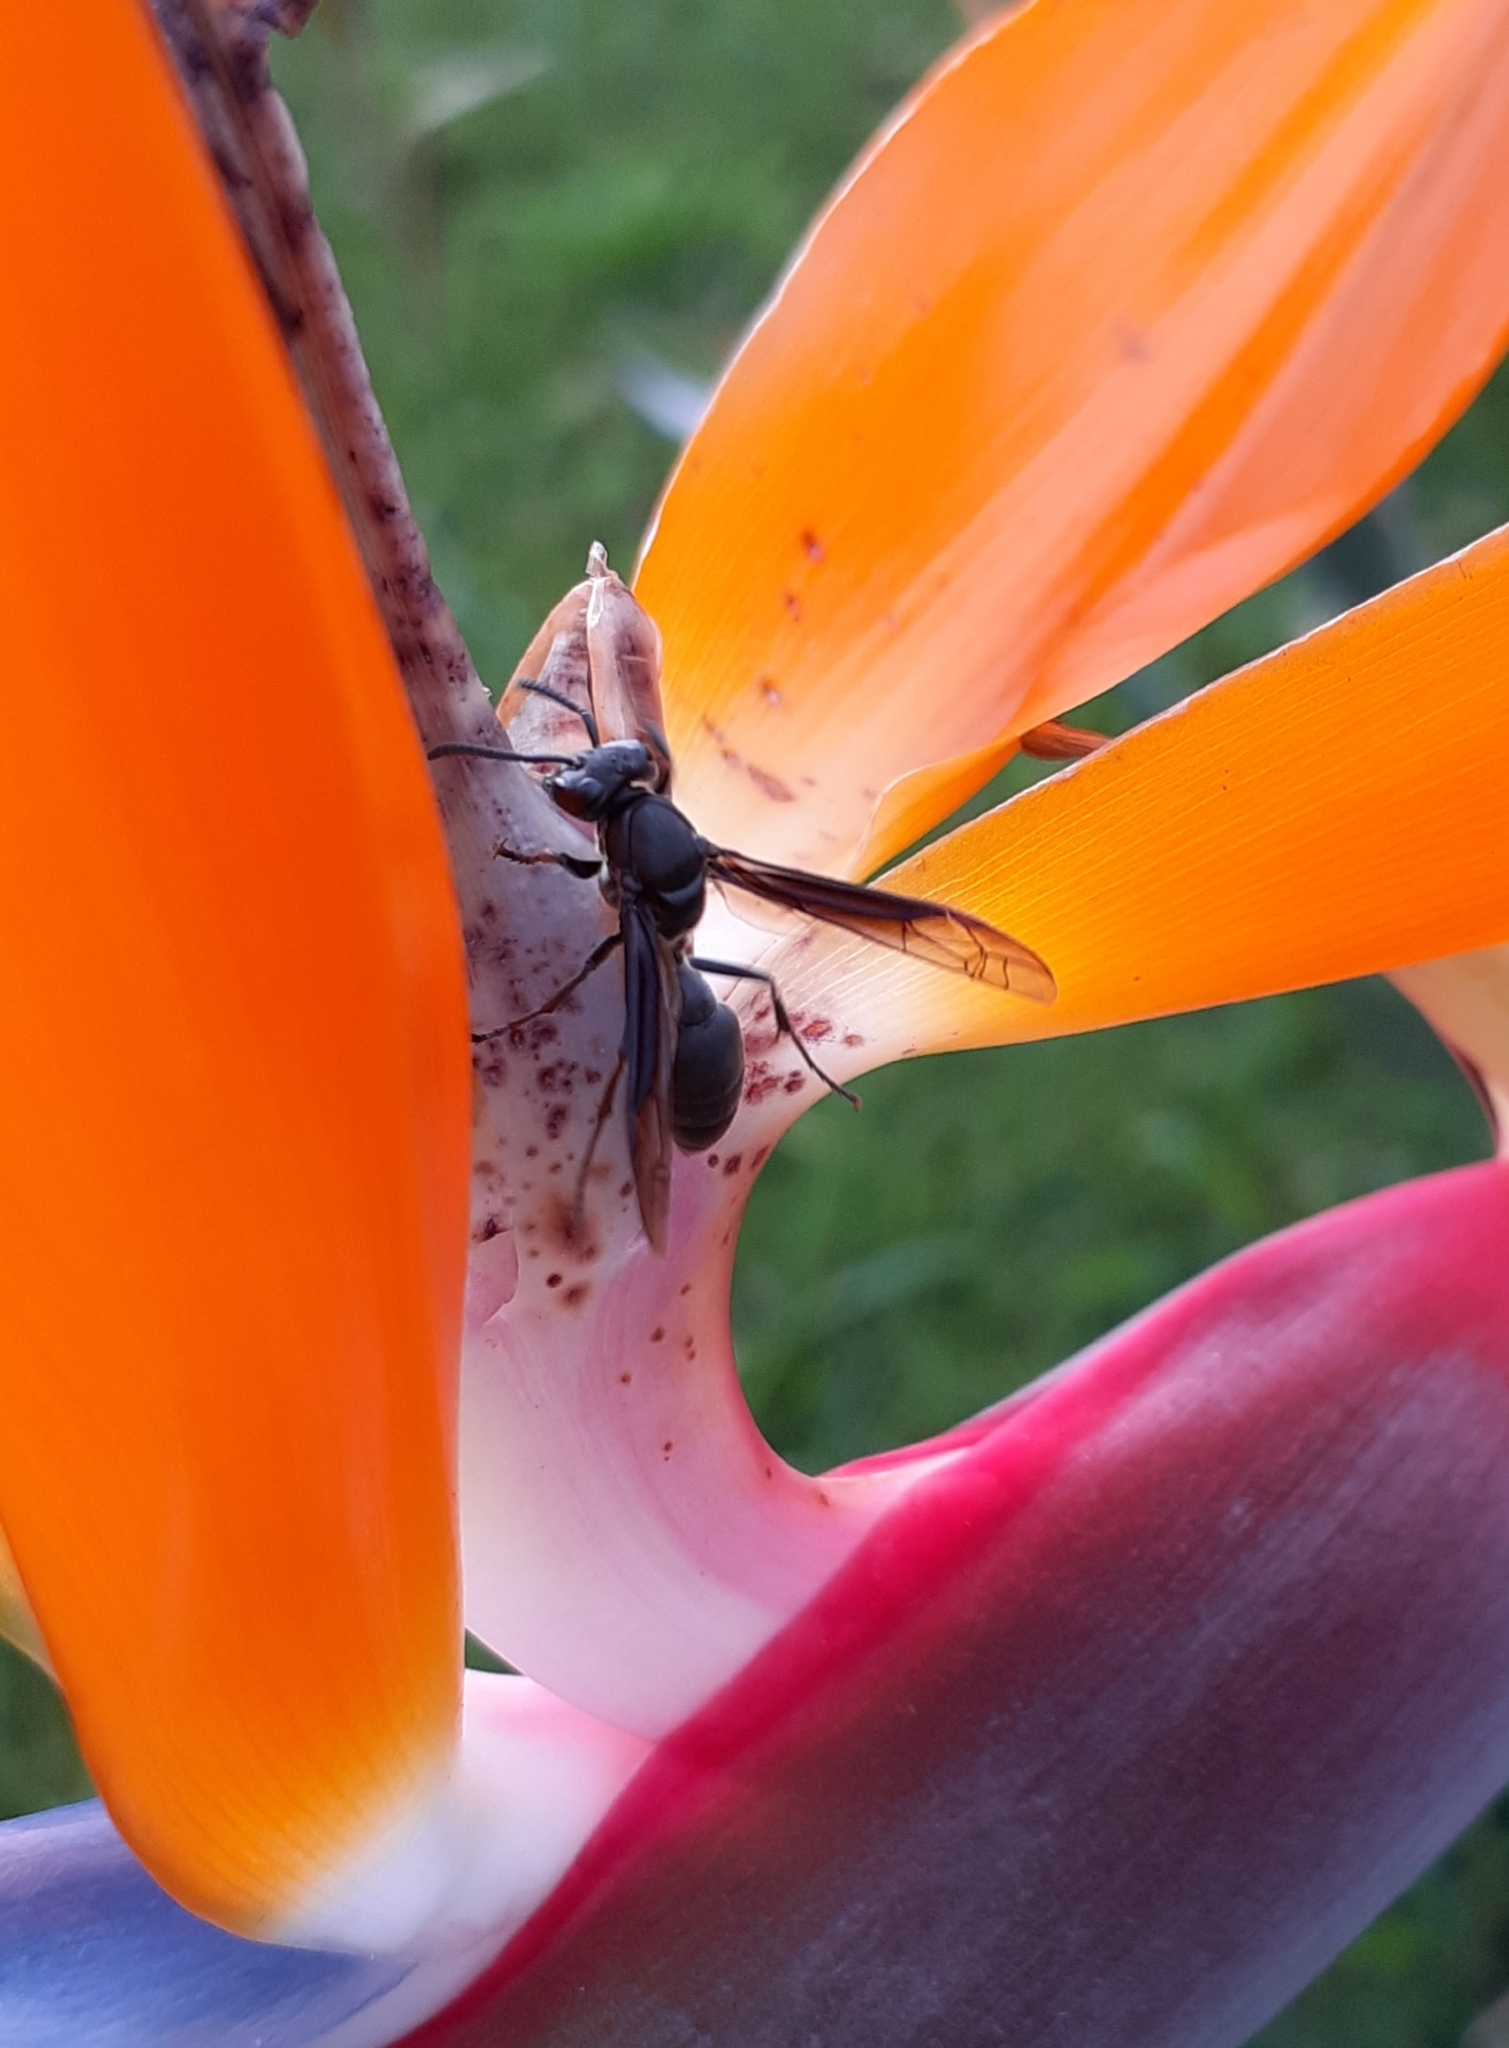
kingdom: Animalia
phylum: Arthropoda
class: Insecta
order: Hymenoptera
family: Eumenidae
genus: Polybia
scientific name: Polybia ignobilis
